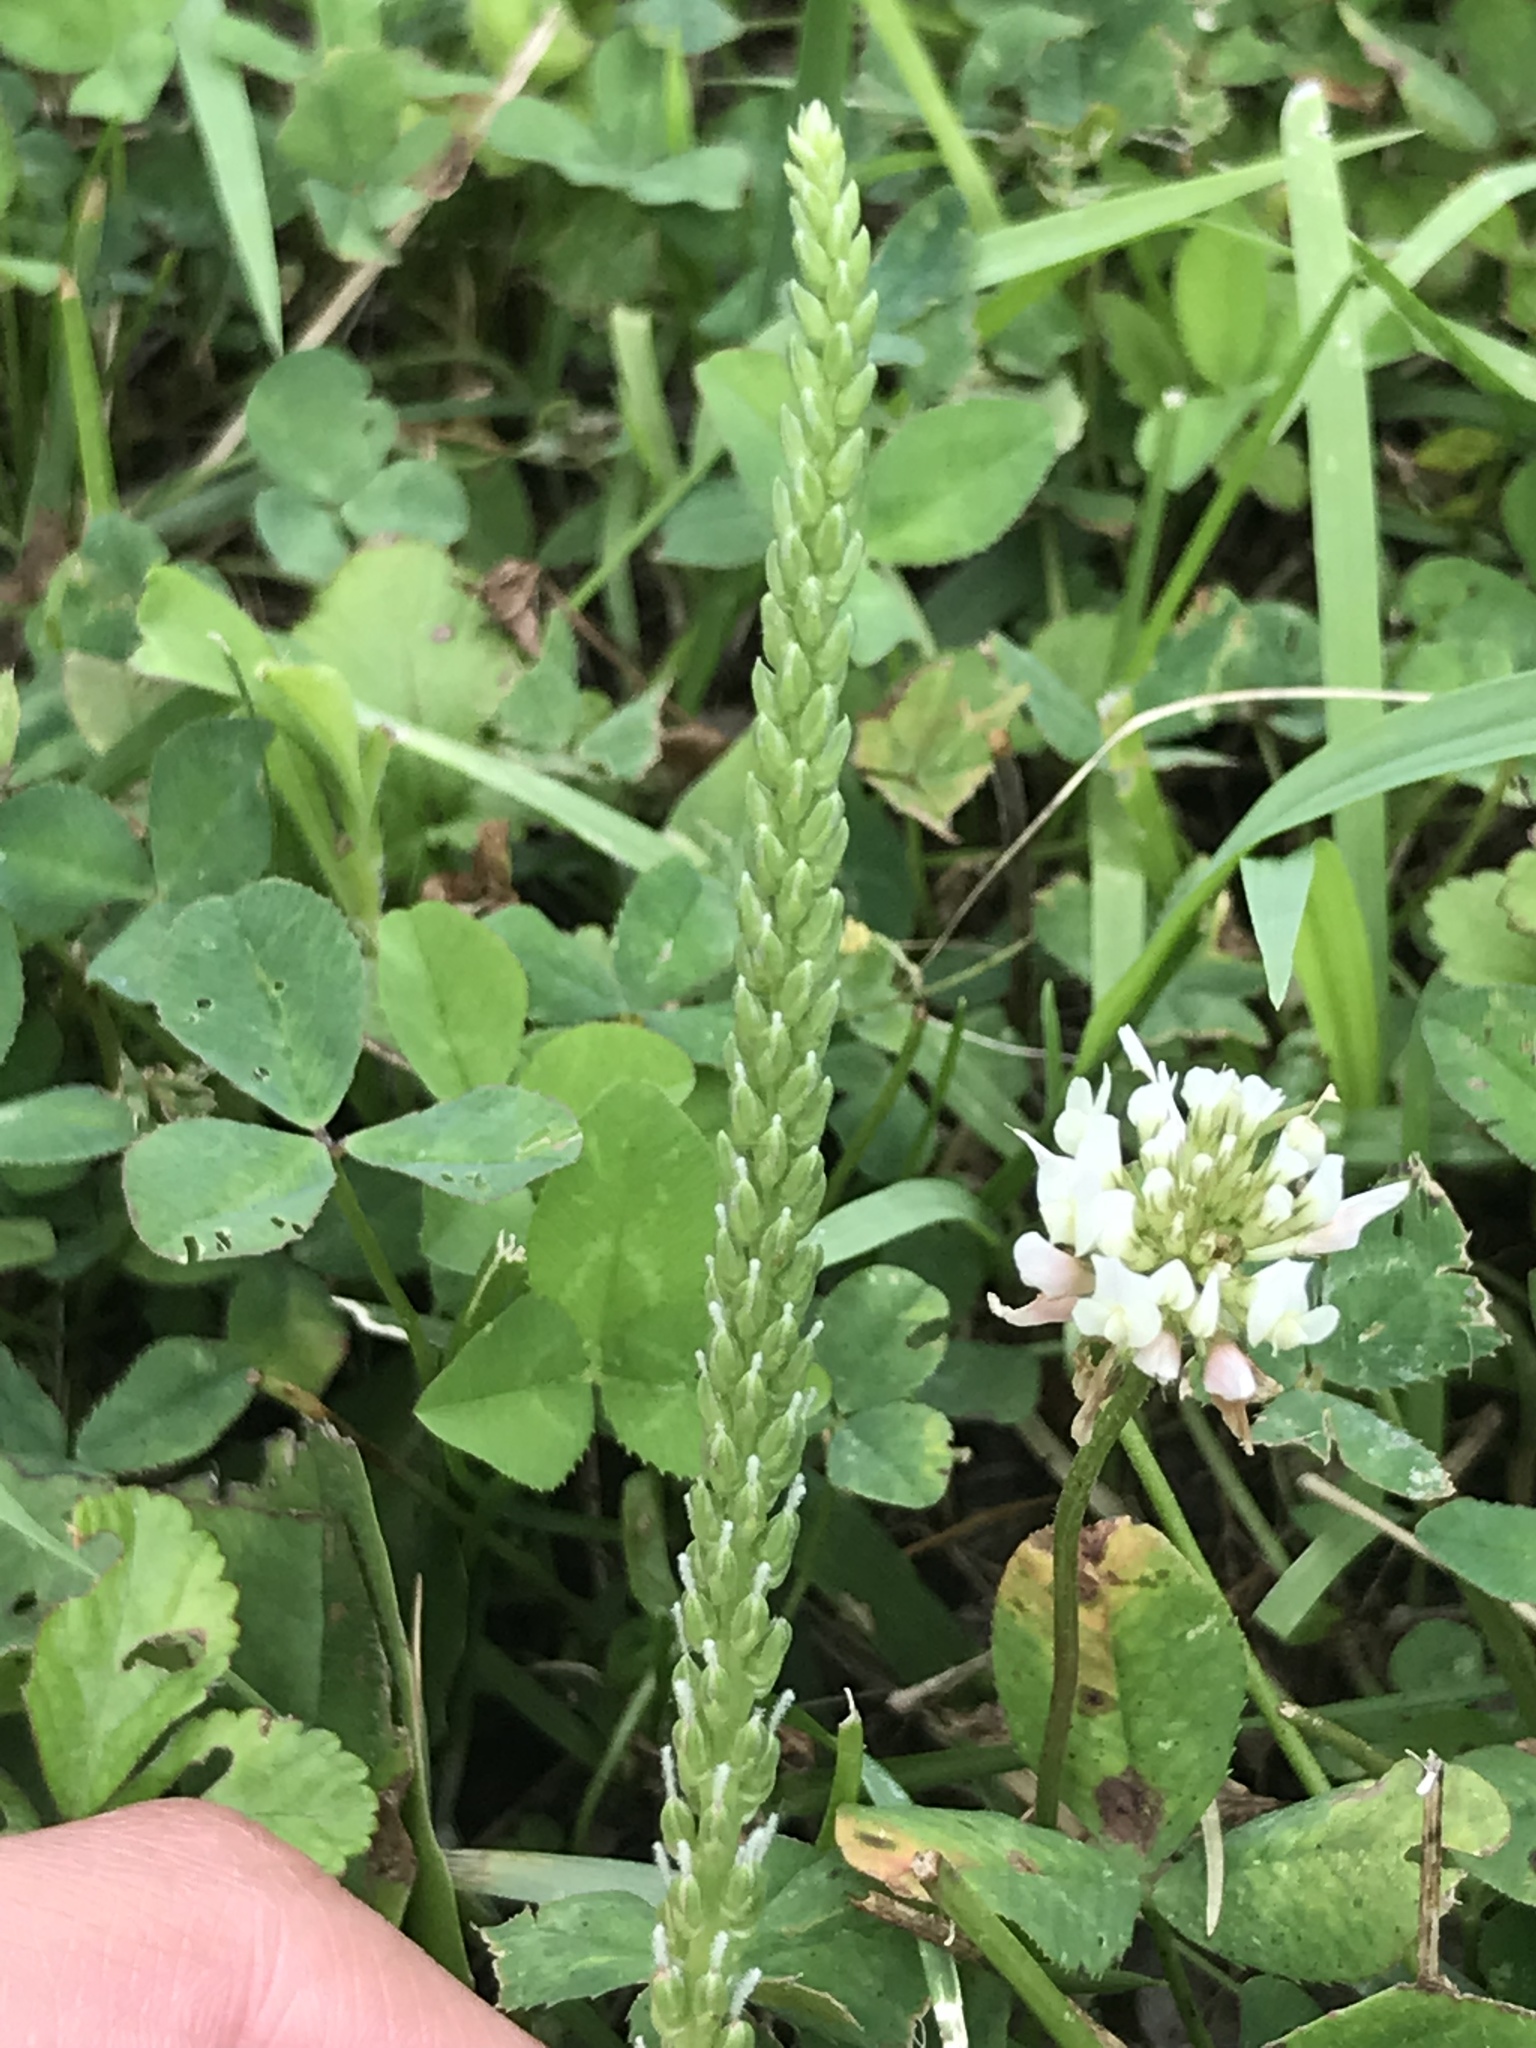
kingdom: Plantae
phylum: Tracheophyta
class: Magnoliopsida
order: Fabales
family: Fabaceae
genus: Trifolium
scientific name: Trifolium repens
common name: White clover
